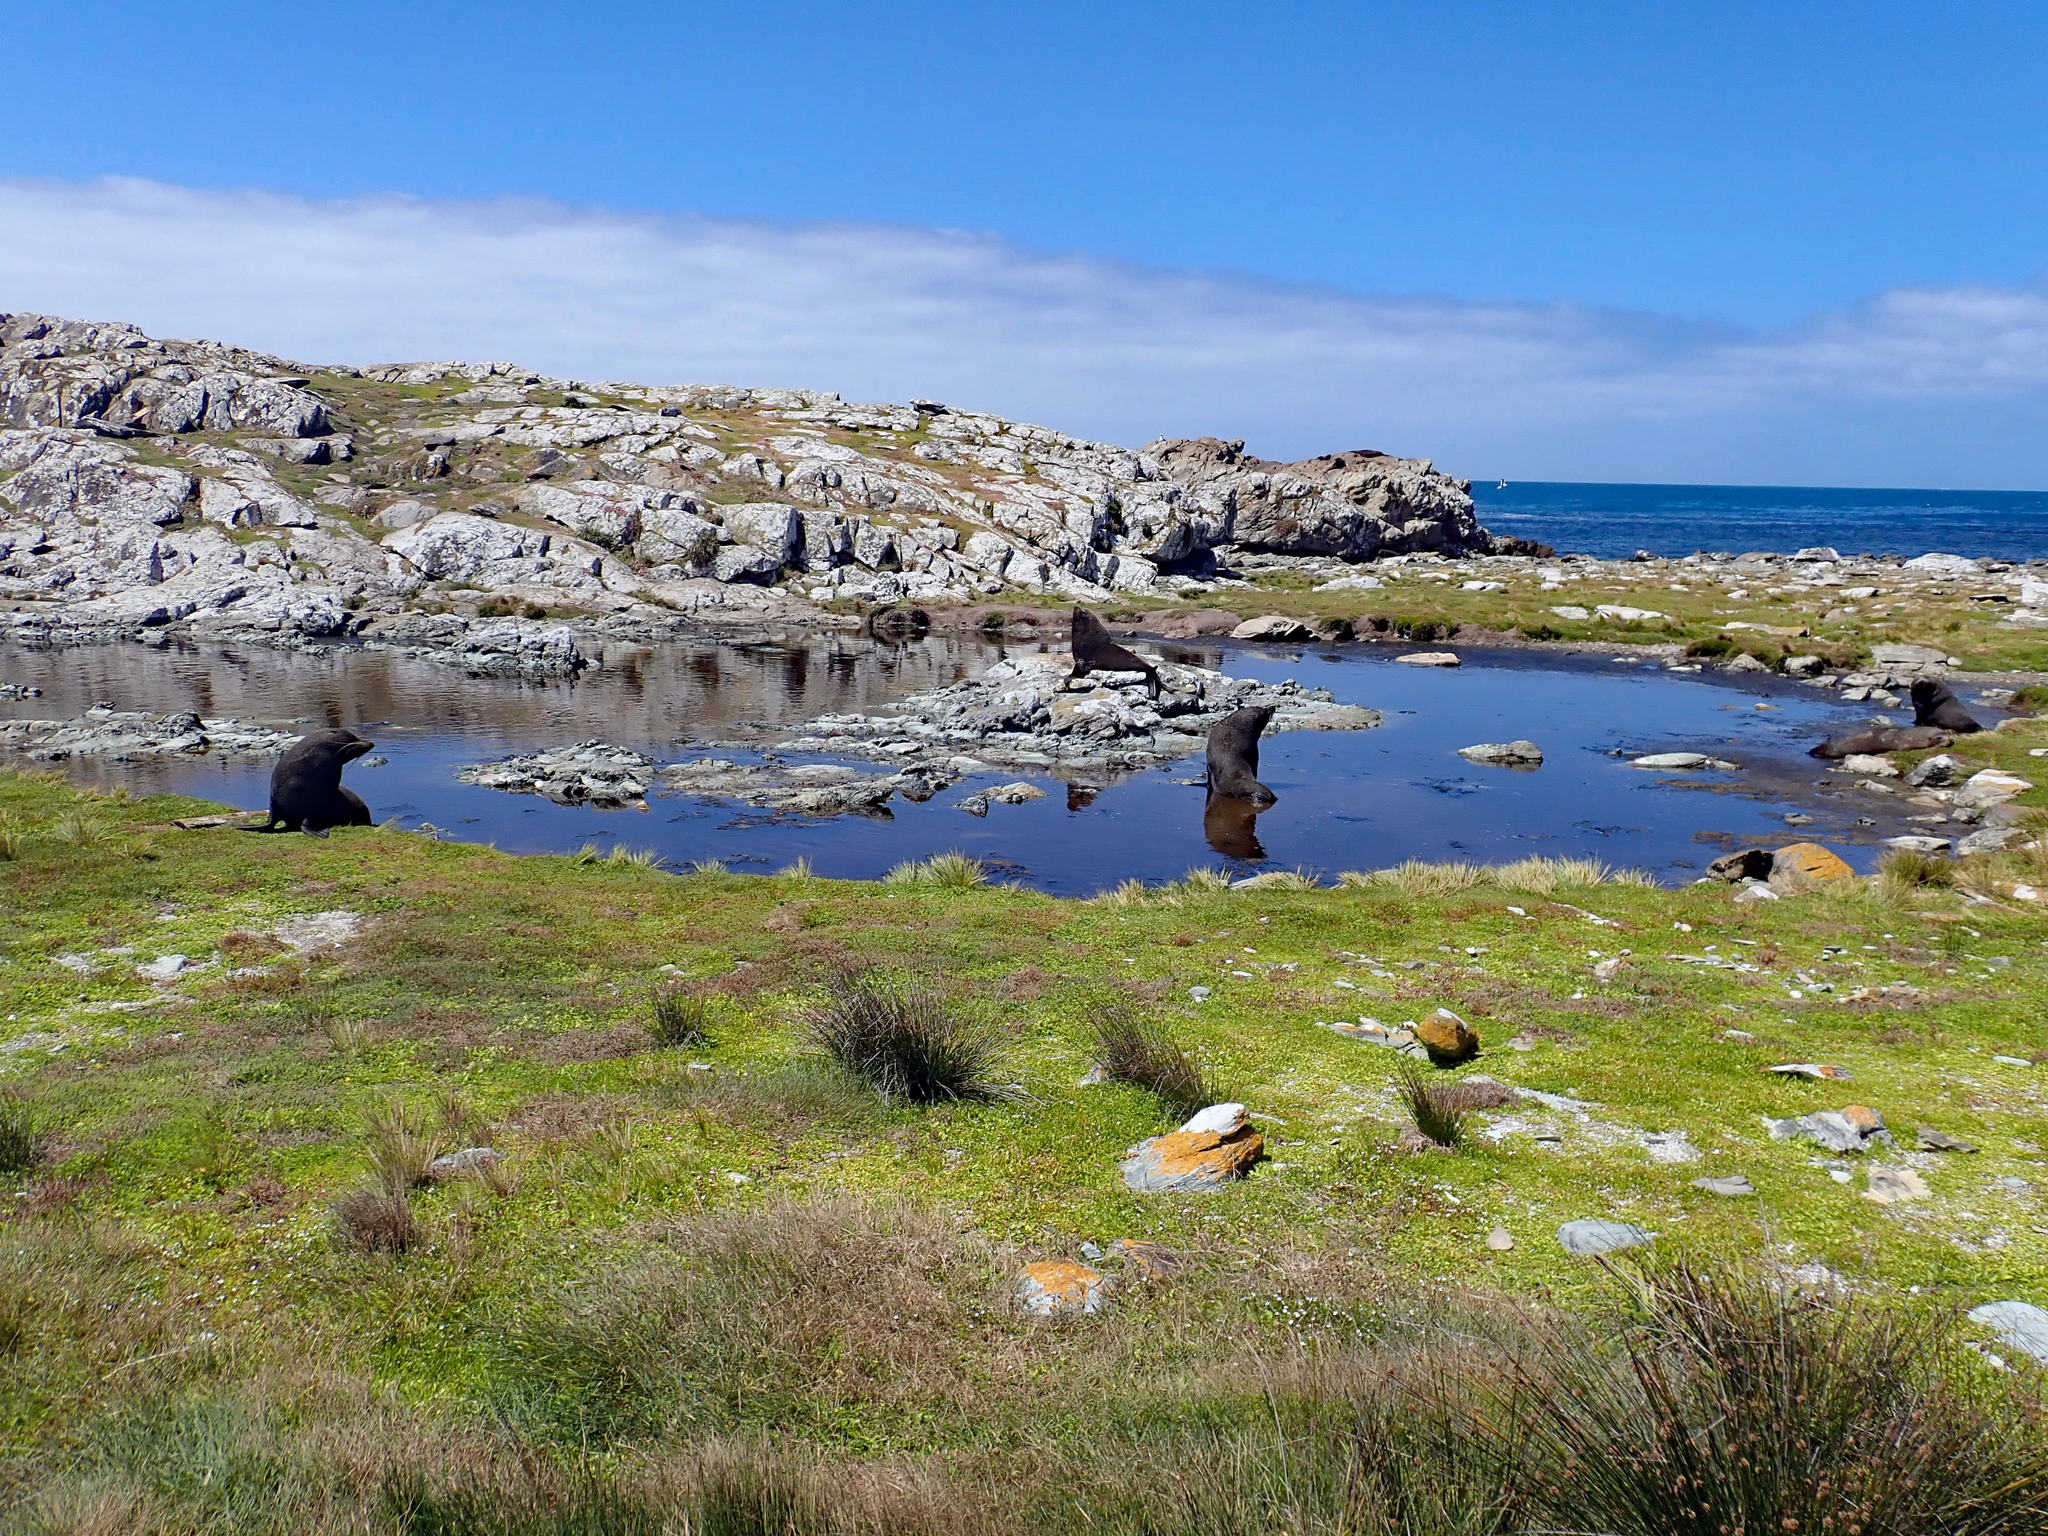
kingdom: Animalia
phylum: Chordata
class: Mammalia
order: Carnivora
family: Otariidae
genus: Arctocephalus
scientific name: Arctocephalus forsteri
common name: New zealand fur seal
